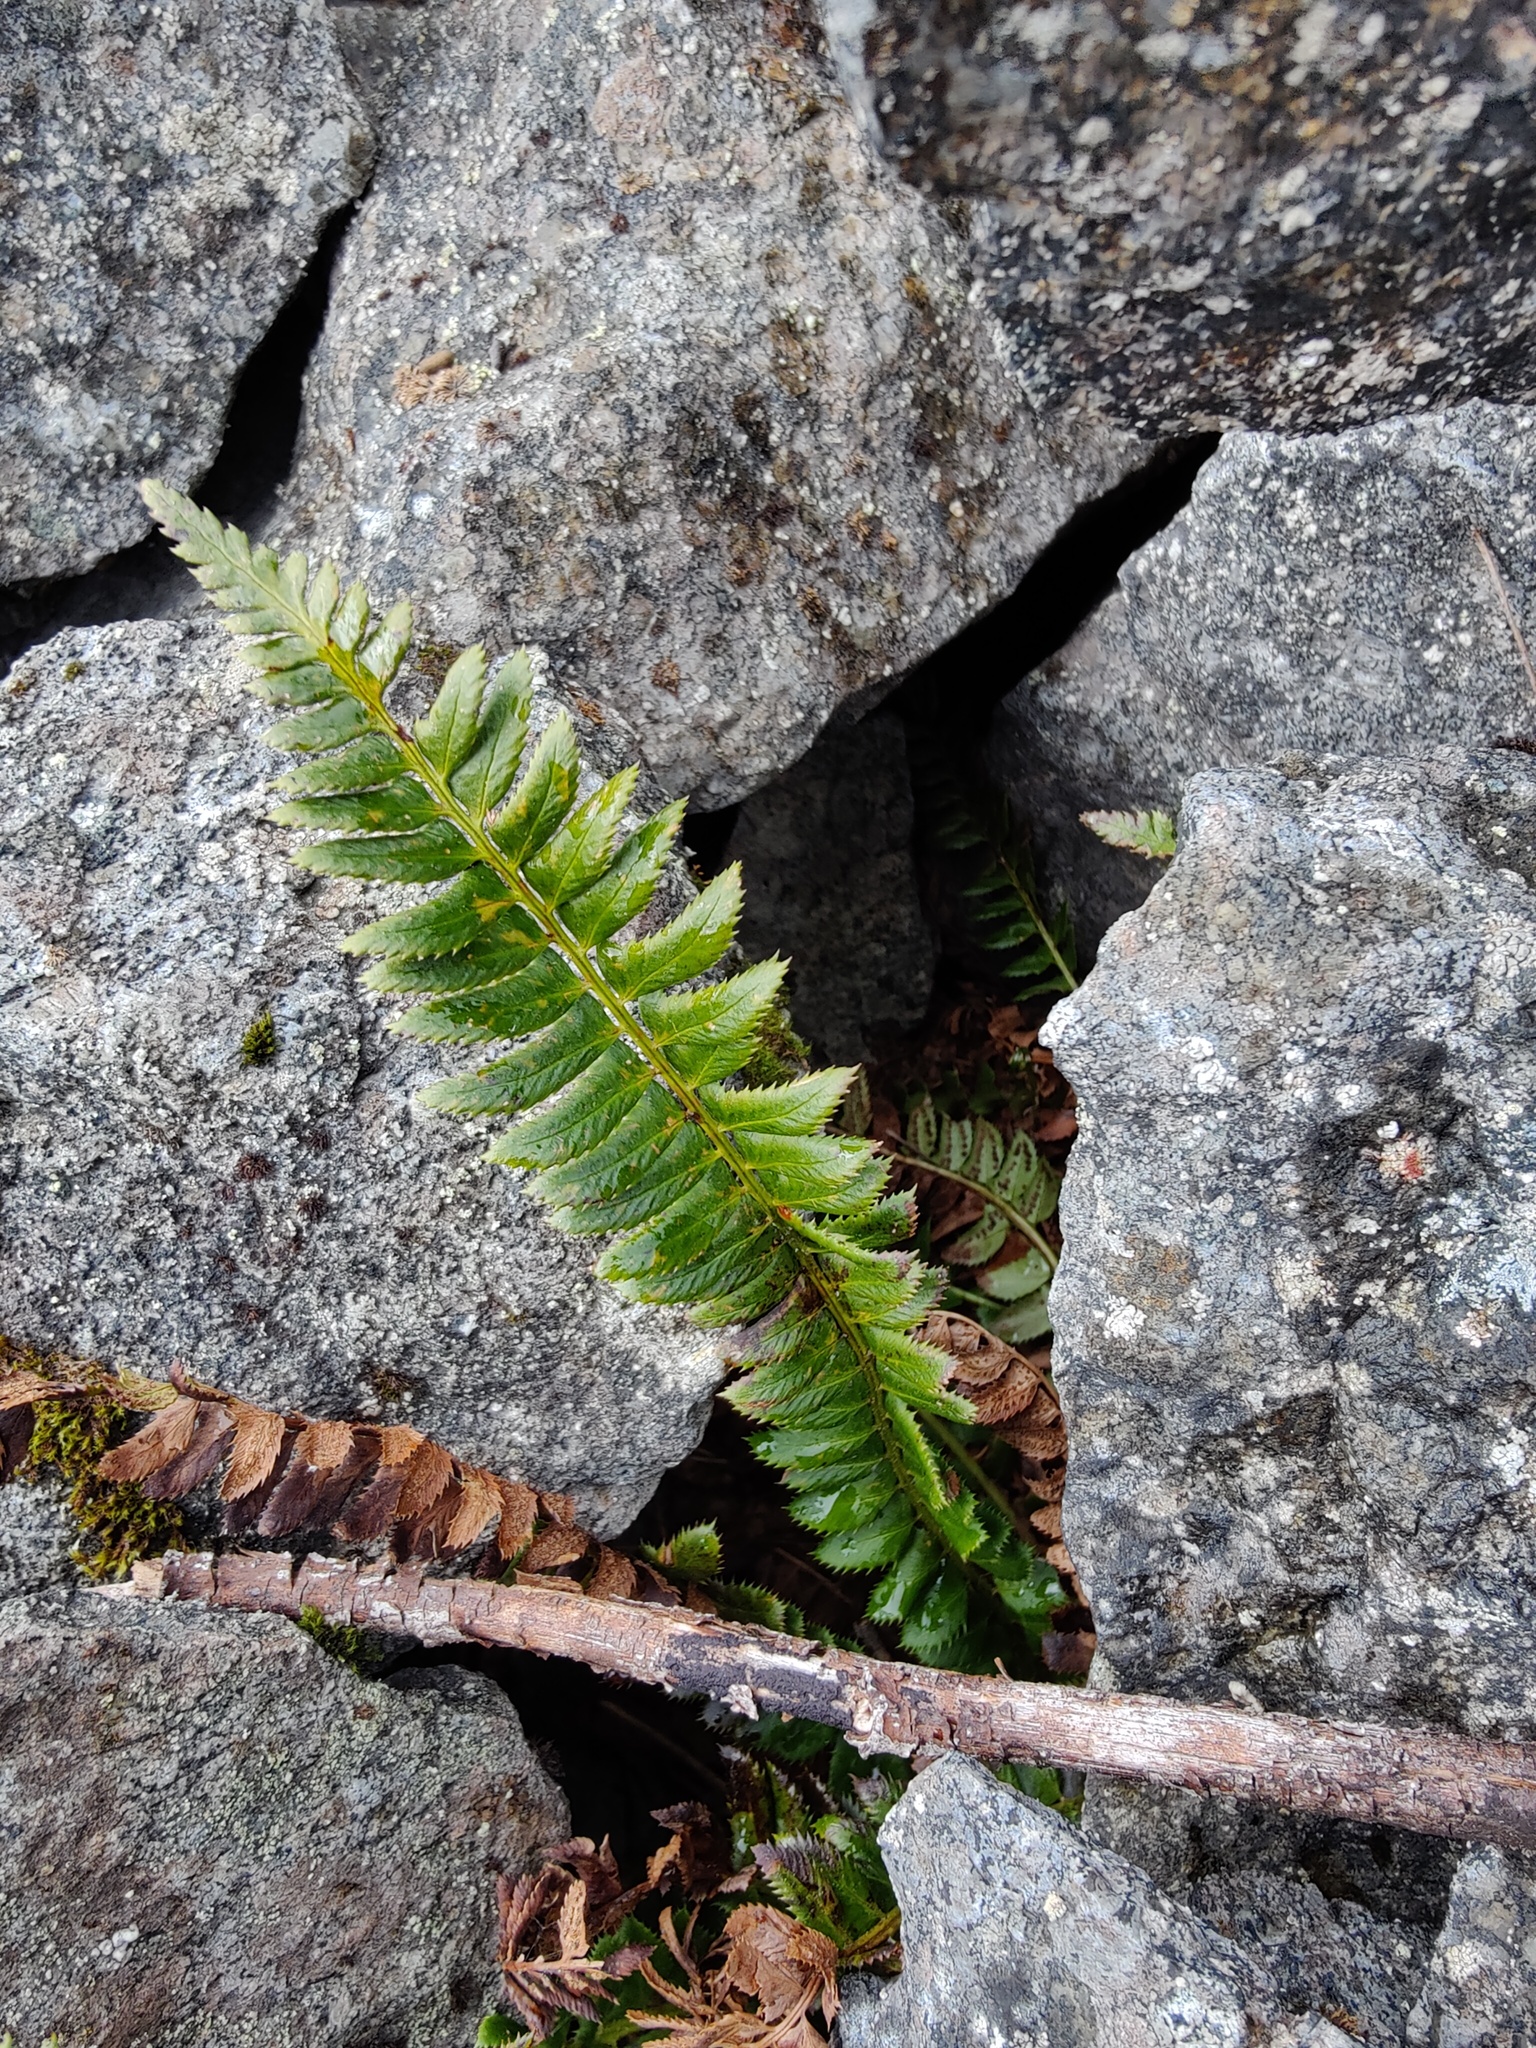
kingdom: Plantae
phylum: Tracheophyta
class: Polypodiopsida
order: Polypodiales
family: Dryopteridaceae
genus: Polystichum
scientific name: Polystichum lonchitis
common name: Holly fern
